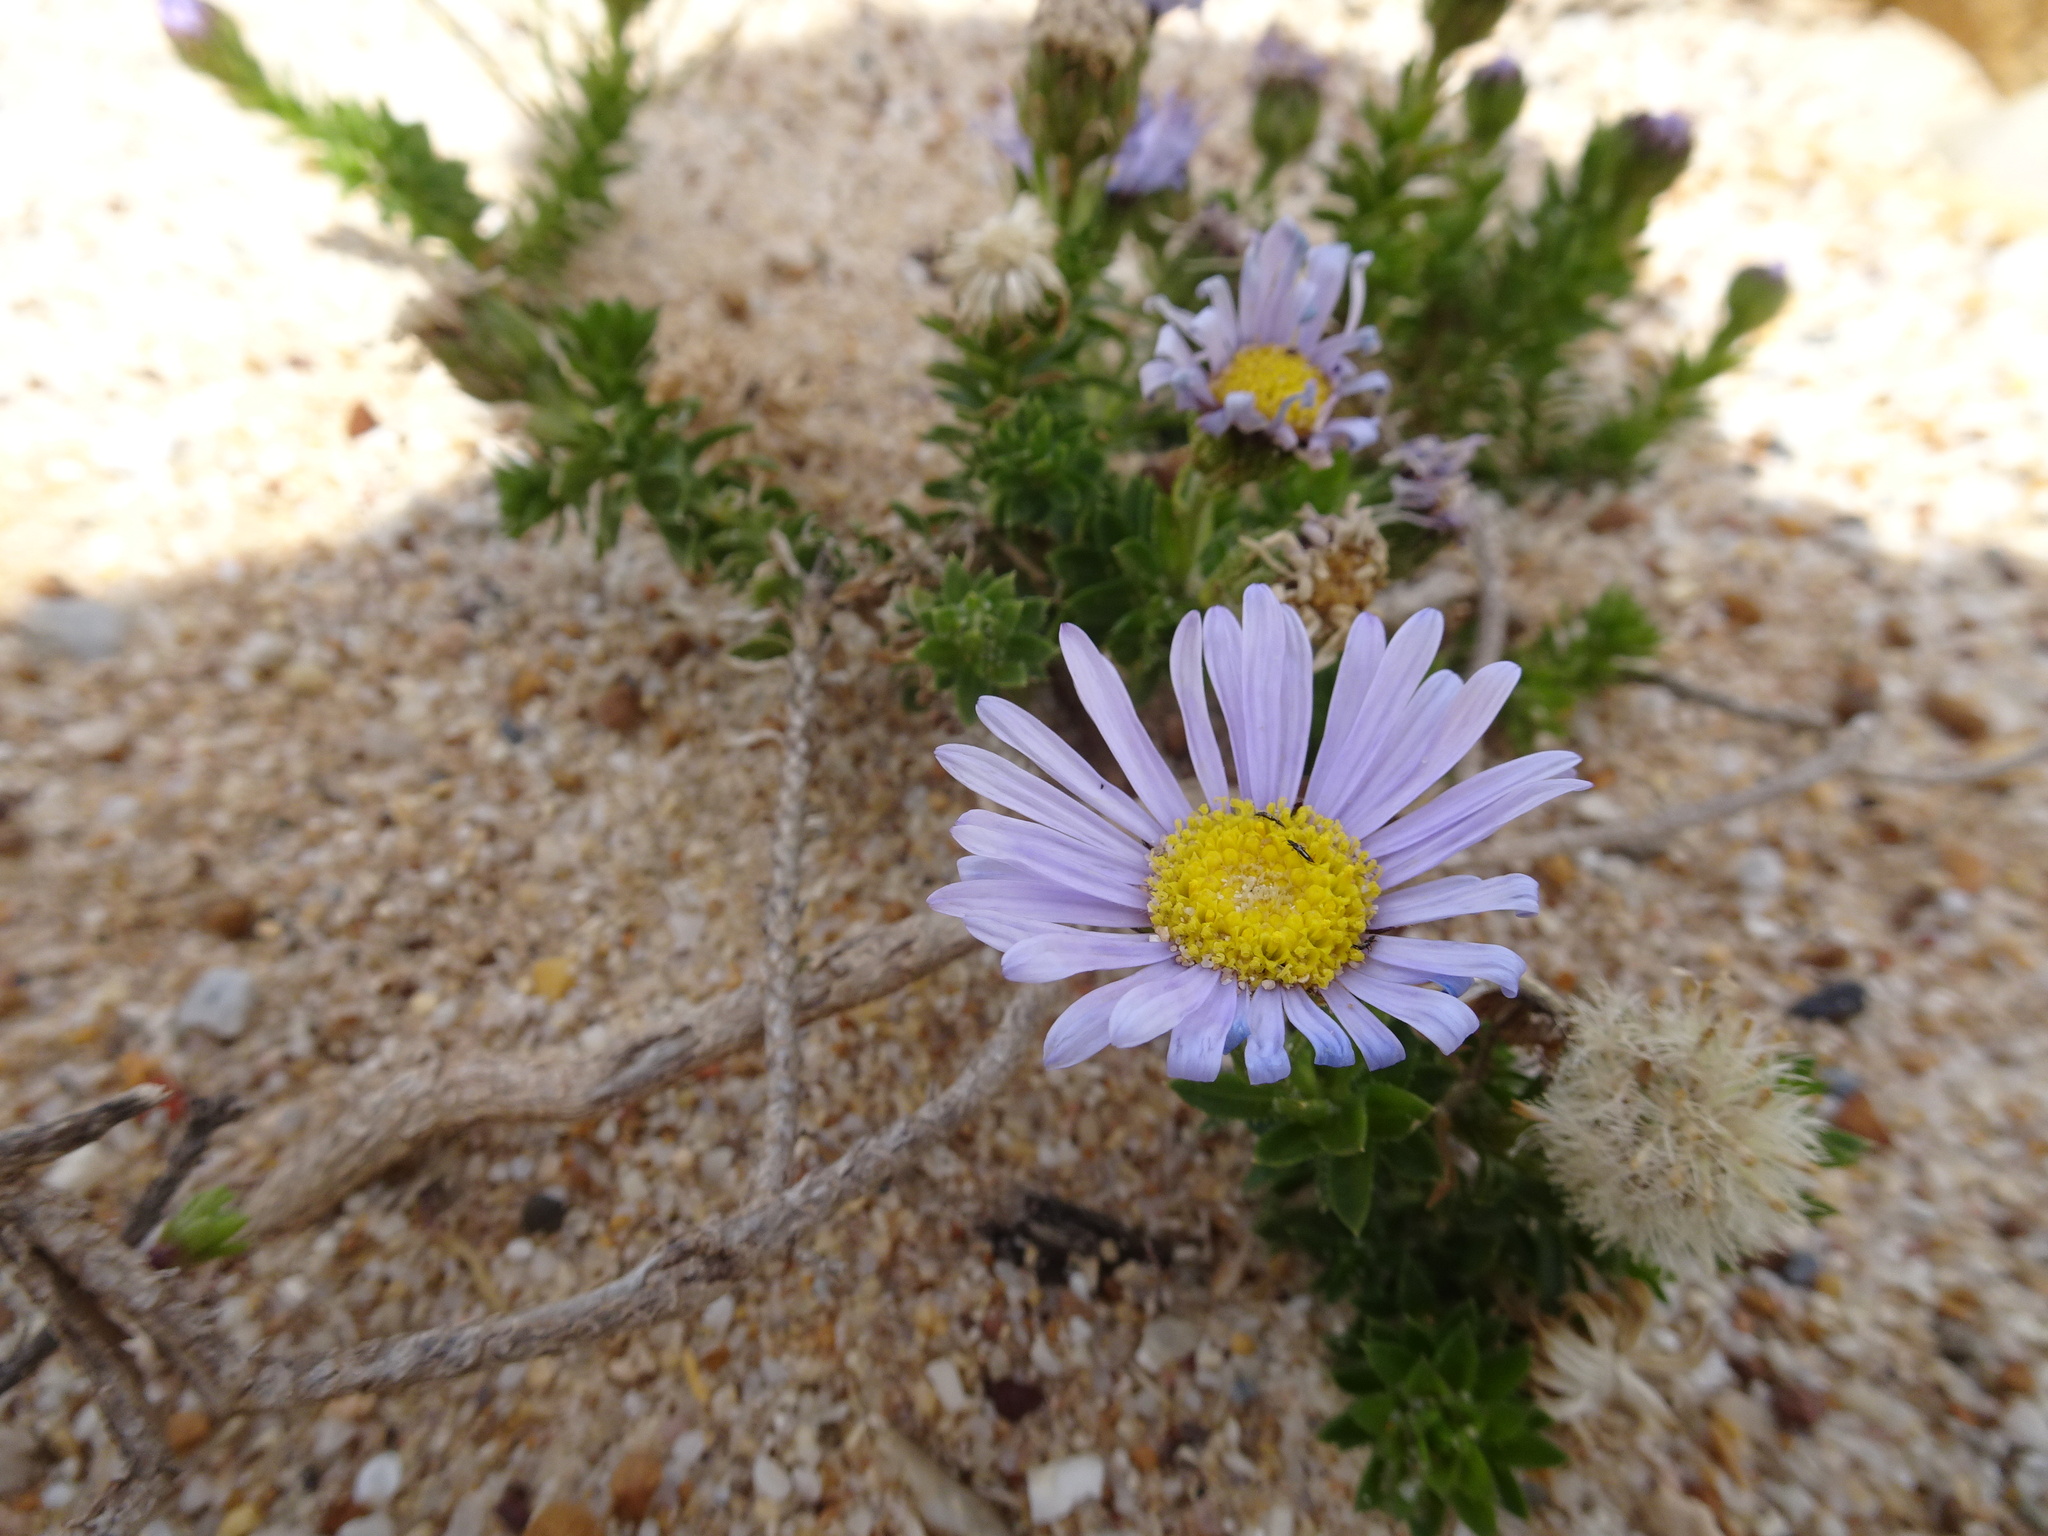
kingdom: Plantae
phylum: Tracheophyta
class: Magnoliopsida
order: Asterales
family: Asteraceae
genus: Felicia
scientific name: Felicia echinata
